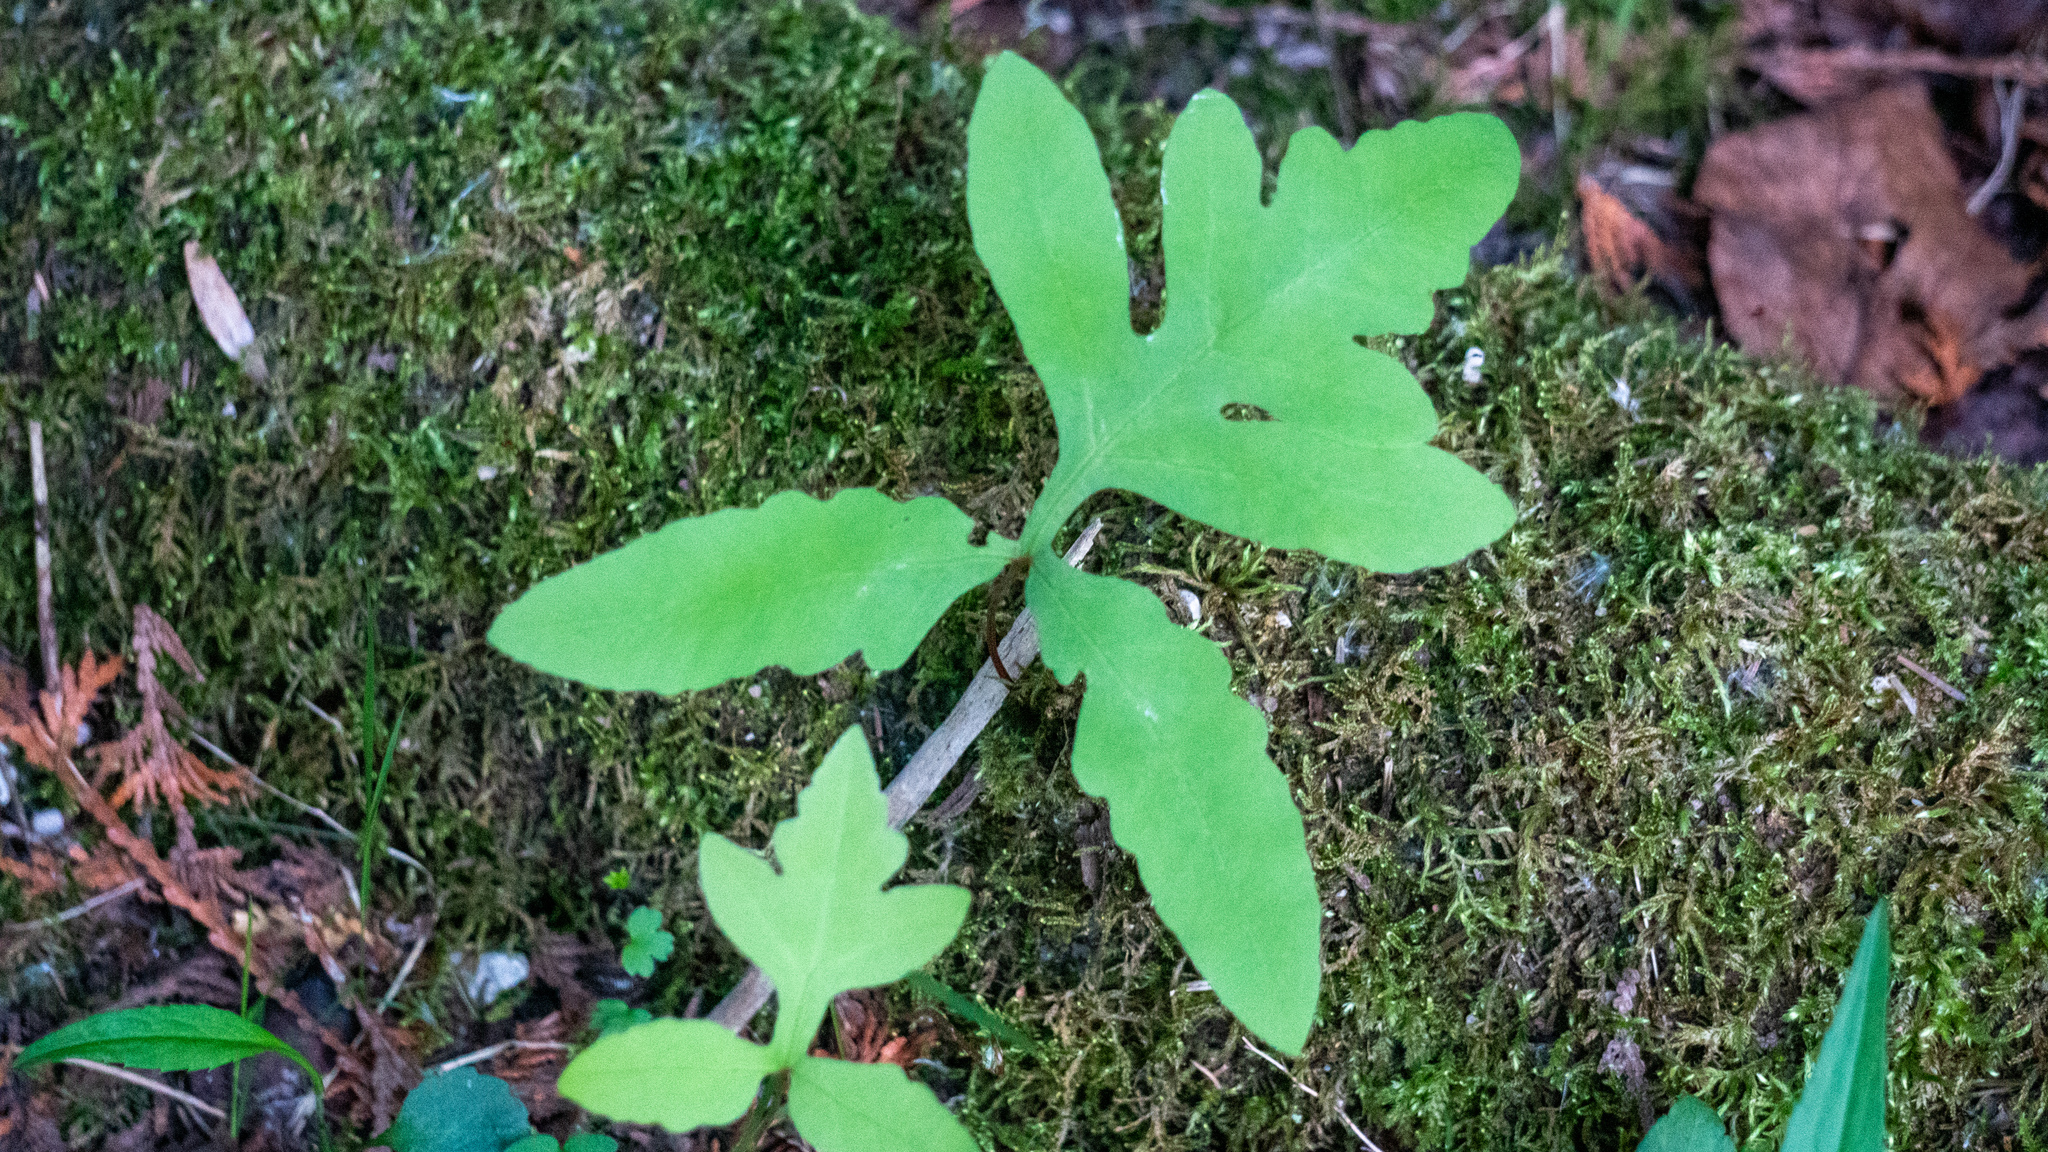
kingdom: Plantae
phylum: Tracheophyta
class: Polypodiopsida
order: Polypodiales
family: Onocleaceae
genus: Onoclea
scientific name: Onoclea sensibilis
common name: Sensitive fern
